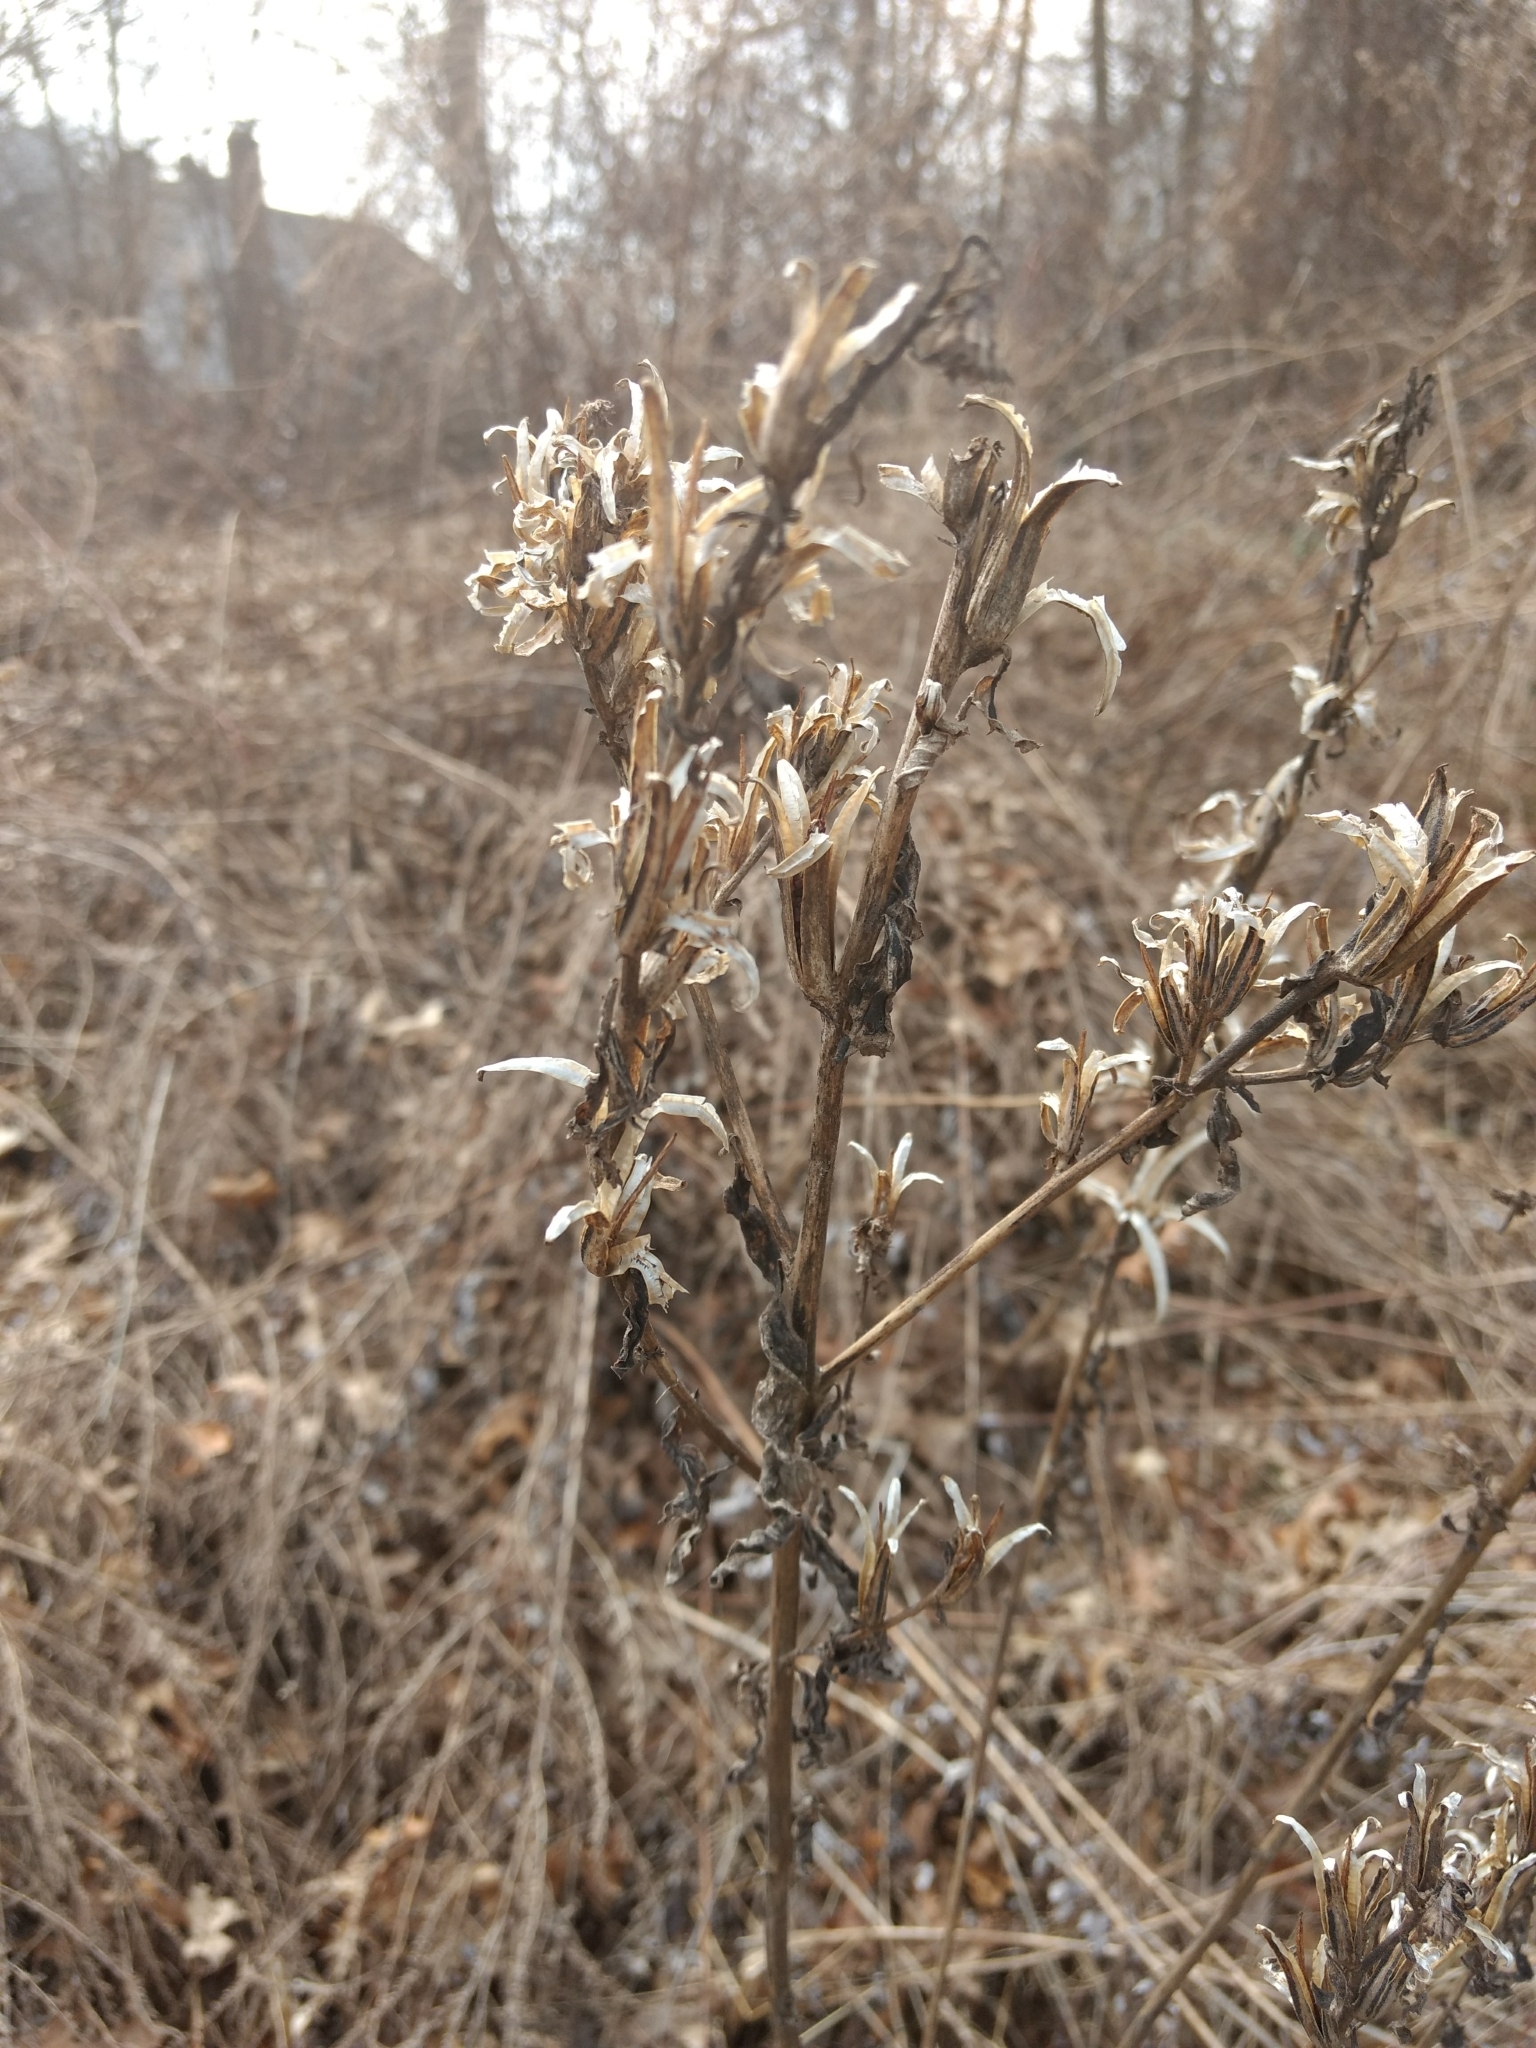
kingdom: Plantae
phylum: Tracheophyta
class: Magnoliopsida
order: Myrtales
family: Onagraceae
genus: Oenothera
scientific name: Oenothera
